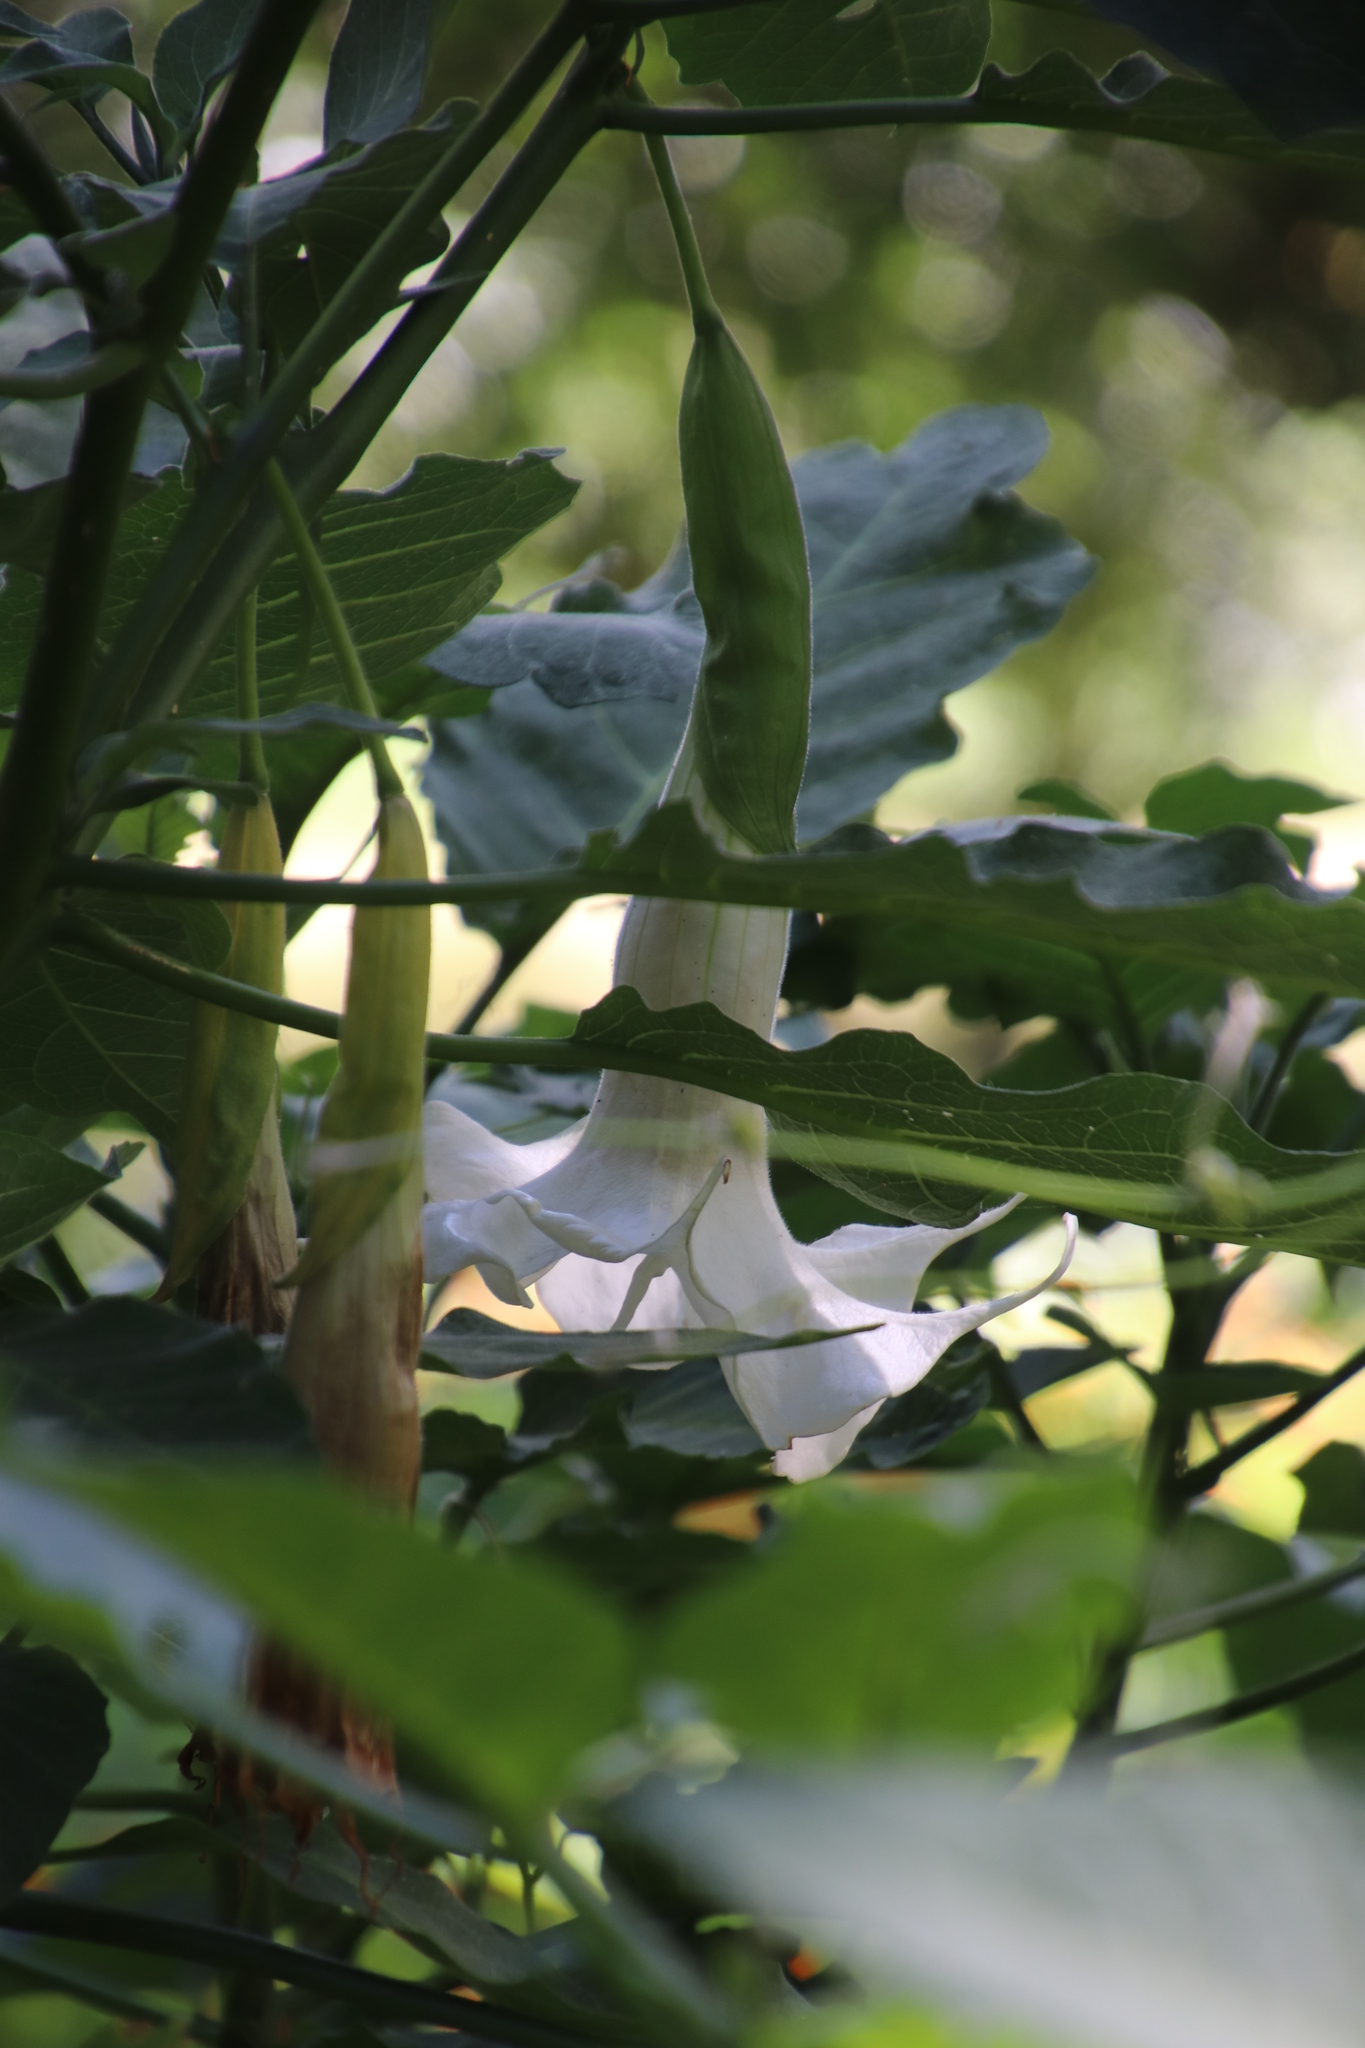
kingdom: Plantae
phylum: Tracheophyta
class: Magnoliopsida
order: Solanales
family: Solanaceae
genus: Brugmansia
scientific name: Brugmansia arborea
